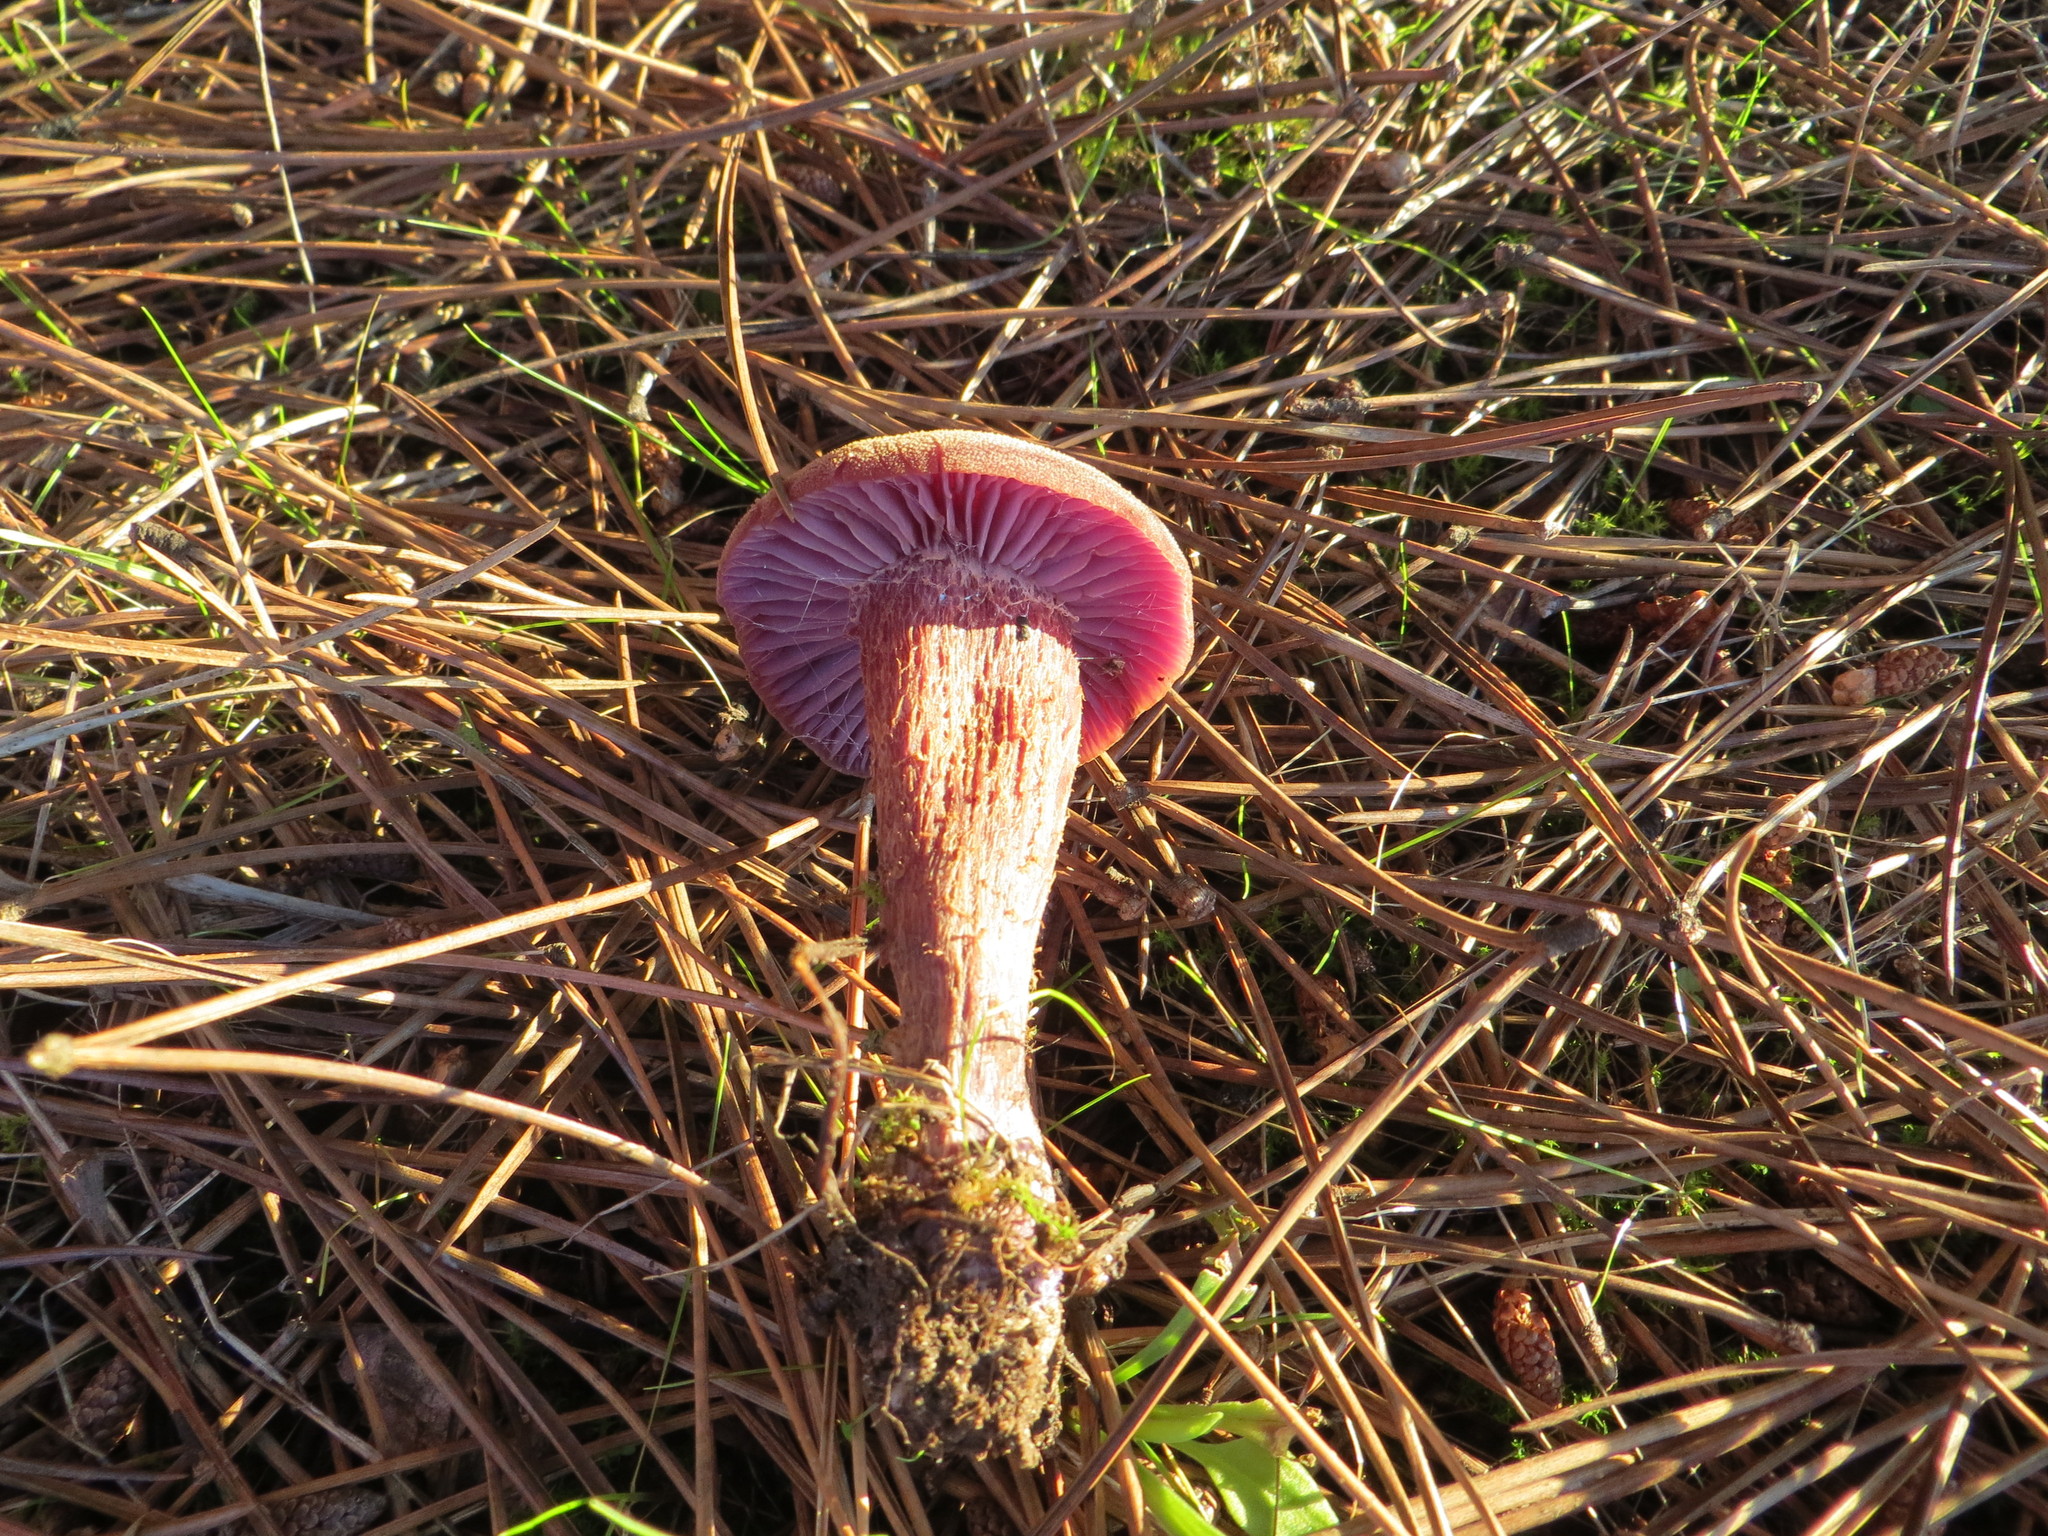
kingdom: Fungi
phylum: Basidiomycota
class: Agaricomycetes
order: Agaricales
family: Hydnangiaceae
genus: Laccaria
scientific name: Laccaria amethysteo-occidentalis
